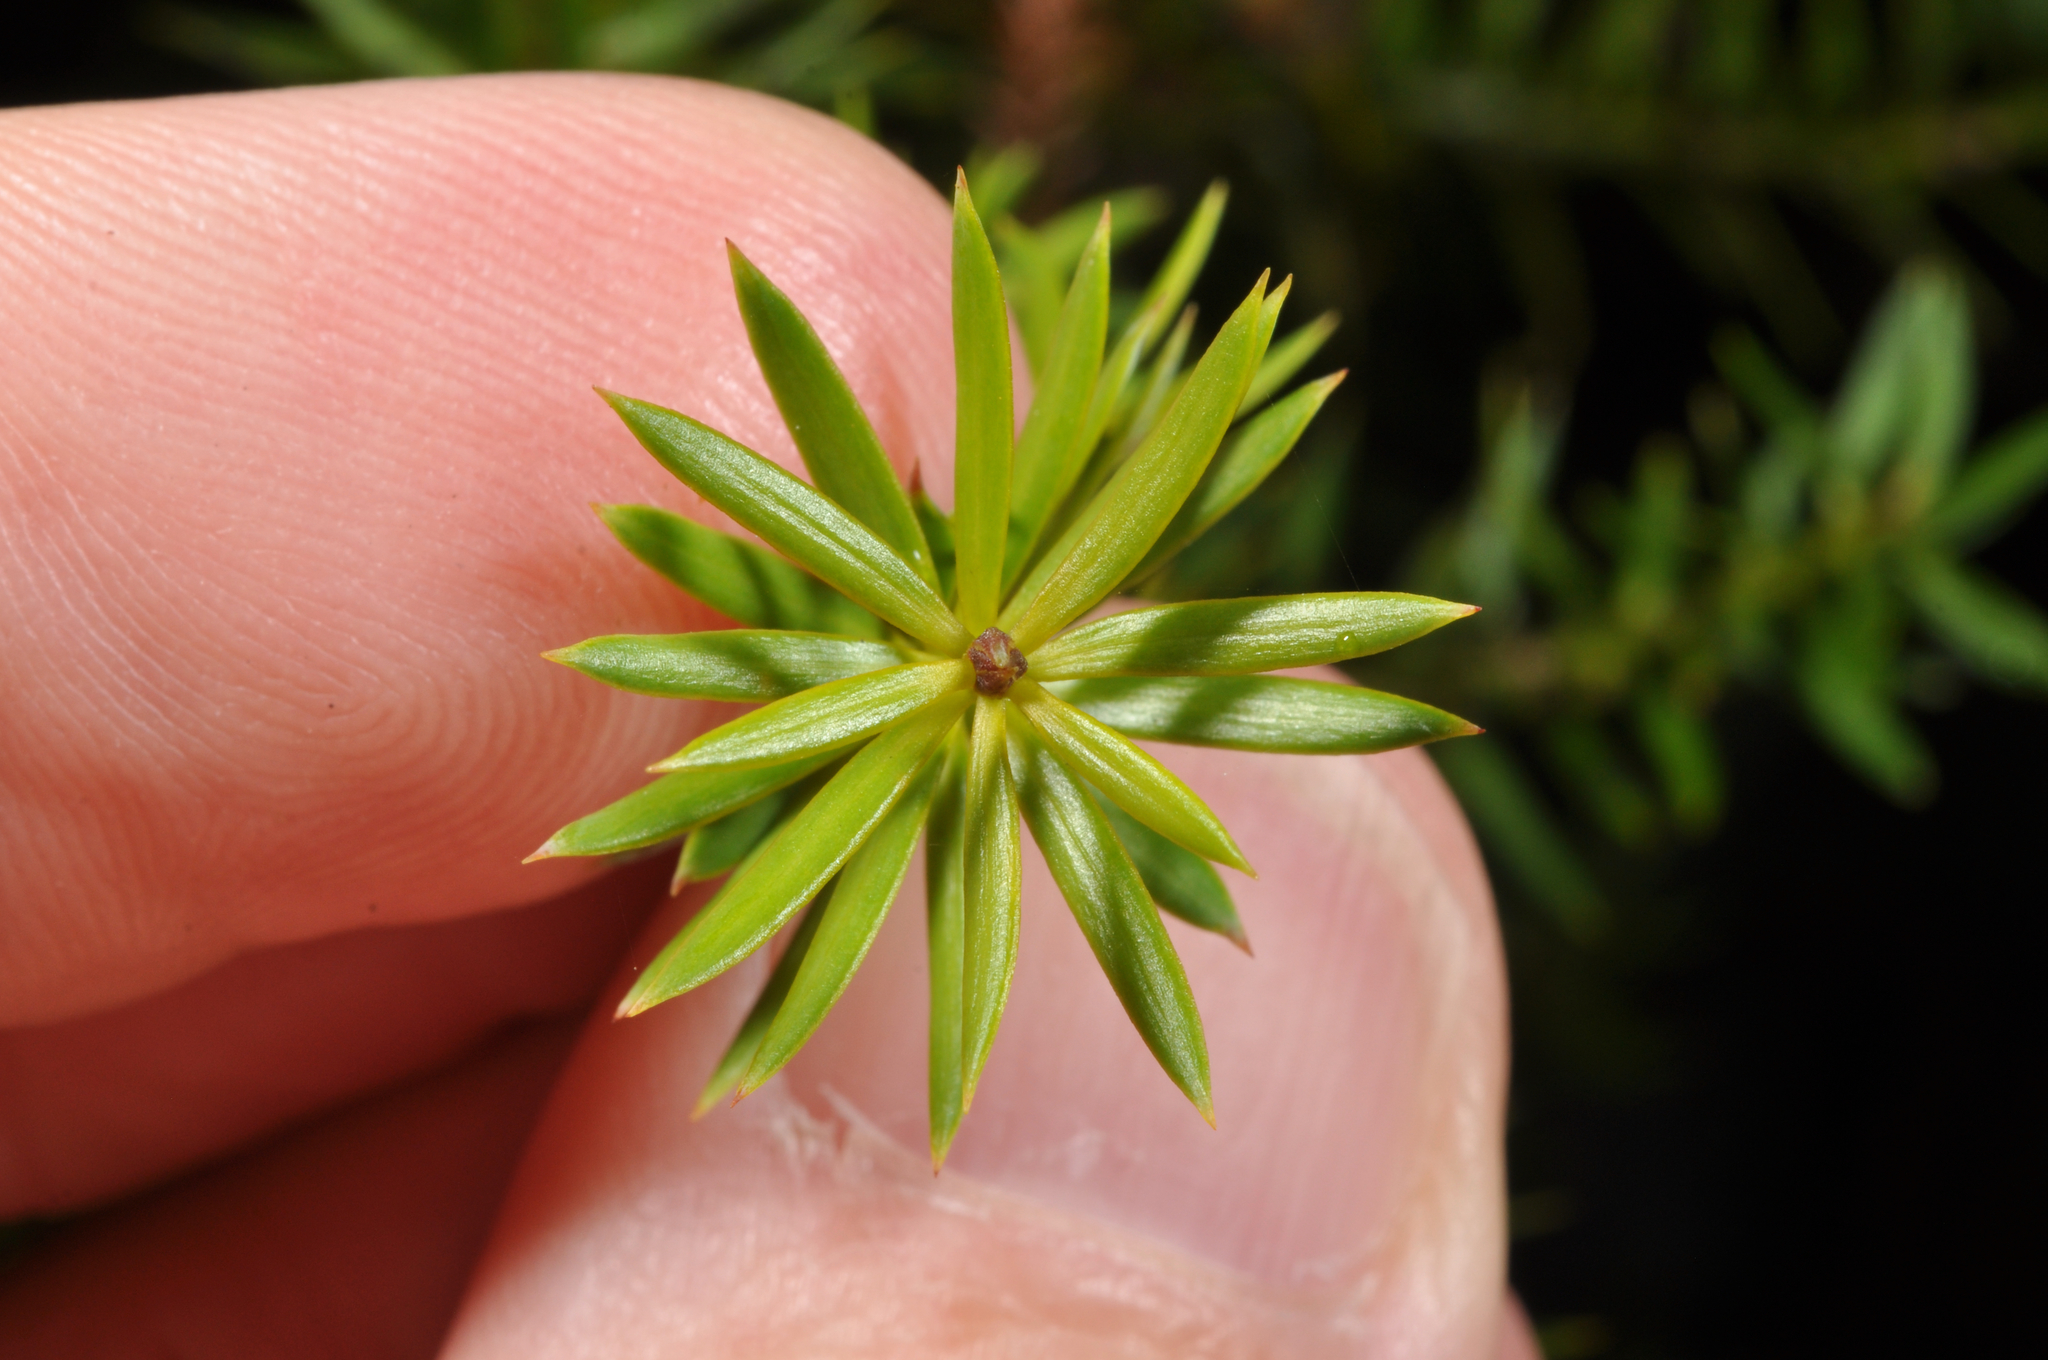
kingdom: Plantae
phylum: Tracheophyta
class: Pinopsida
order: Pinales
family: Podocarpaceae
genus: Podocarpus
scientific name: Podocarpus acutifolius
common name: Needle-leaved totara
